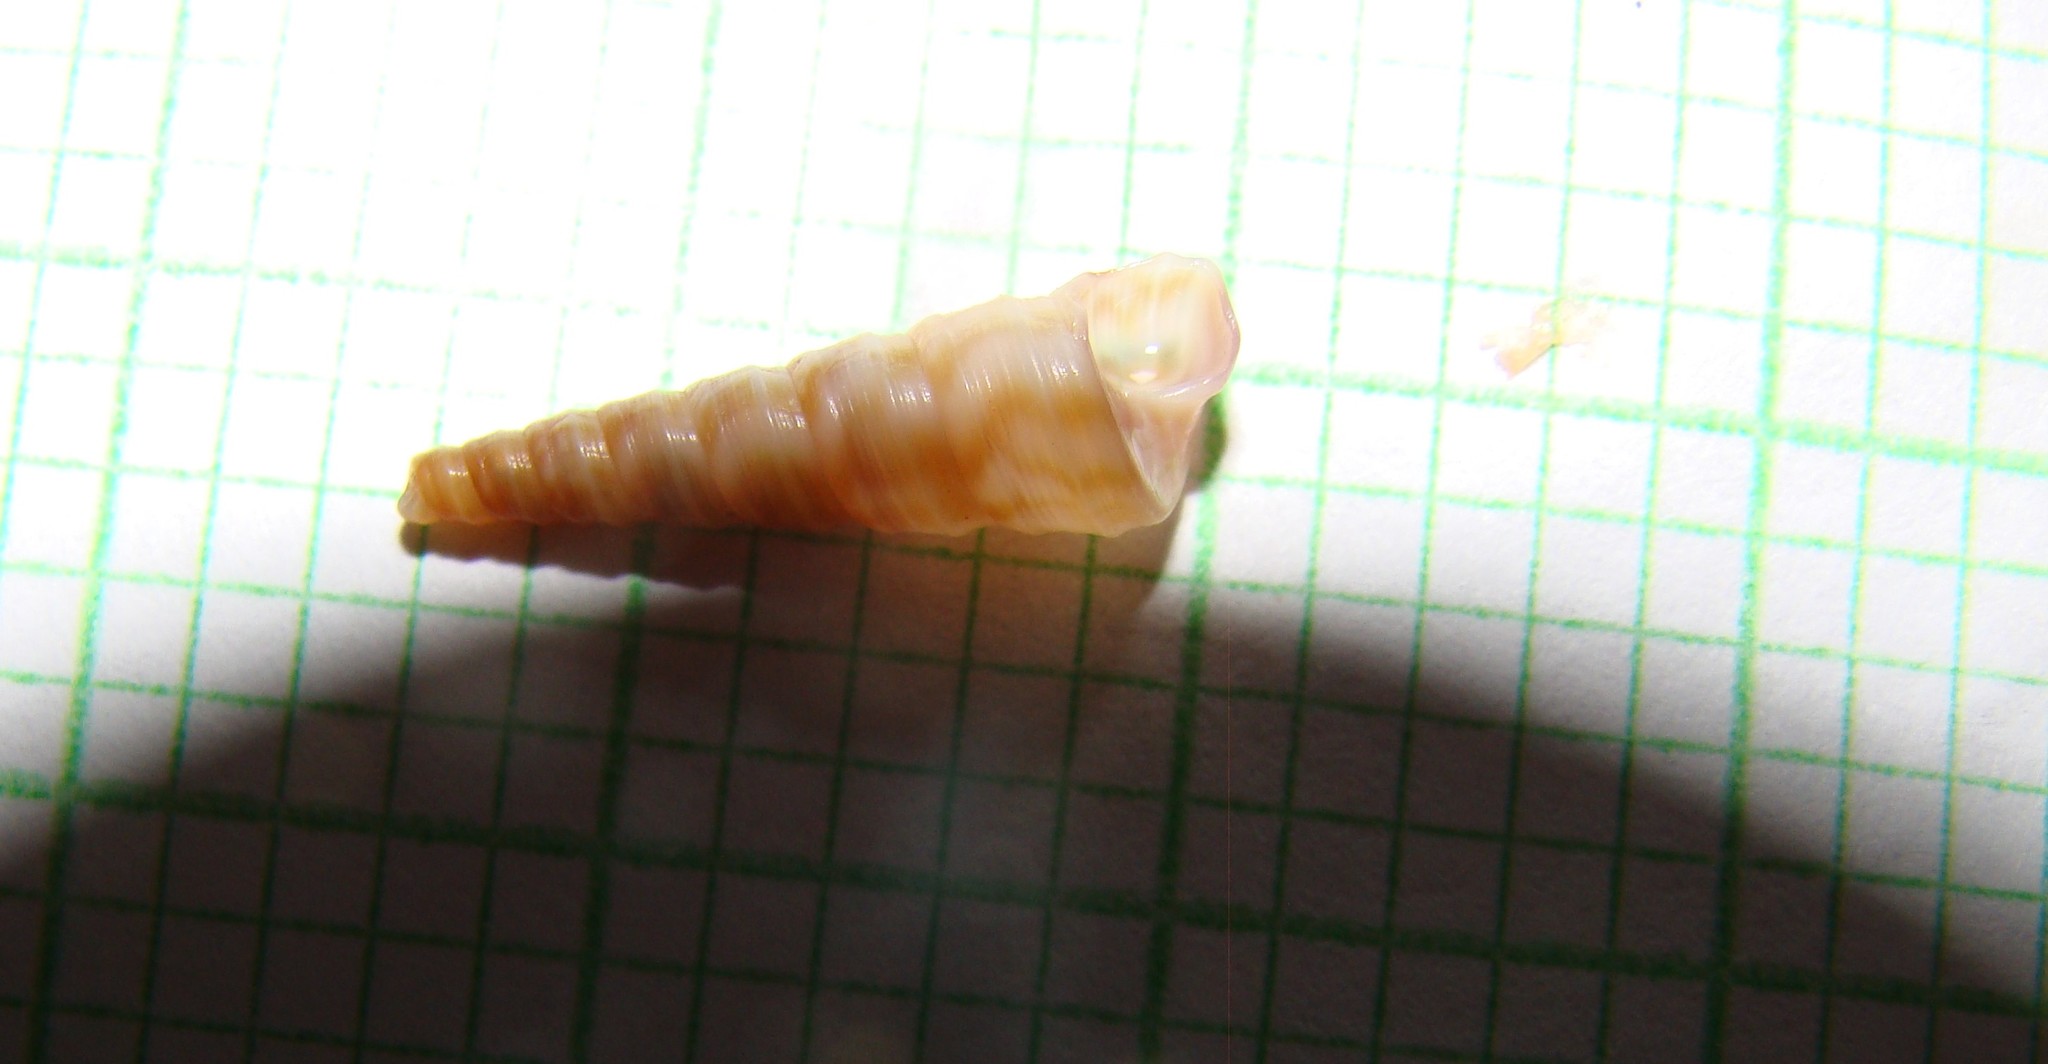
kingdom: Animalia
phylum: Mollusca
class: Gastropoda
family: Turritellidae
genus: Stiracolpus
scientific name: Stiracolpus pagoda
